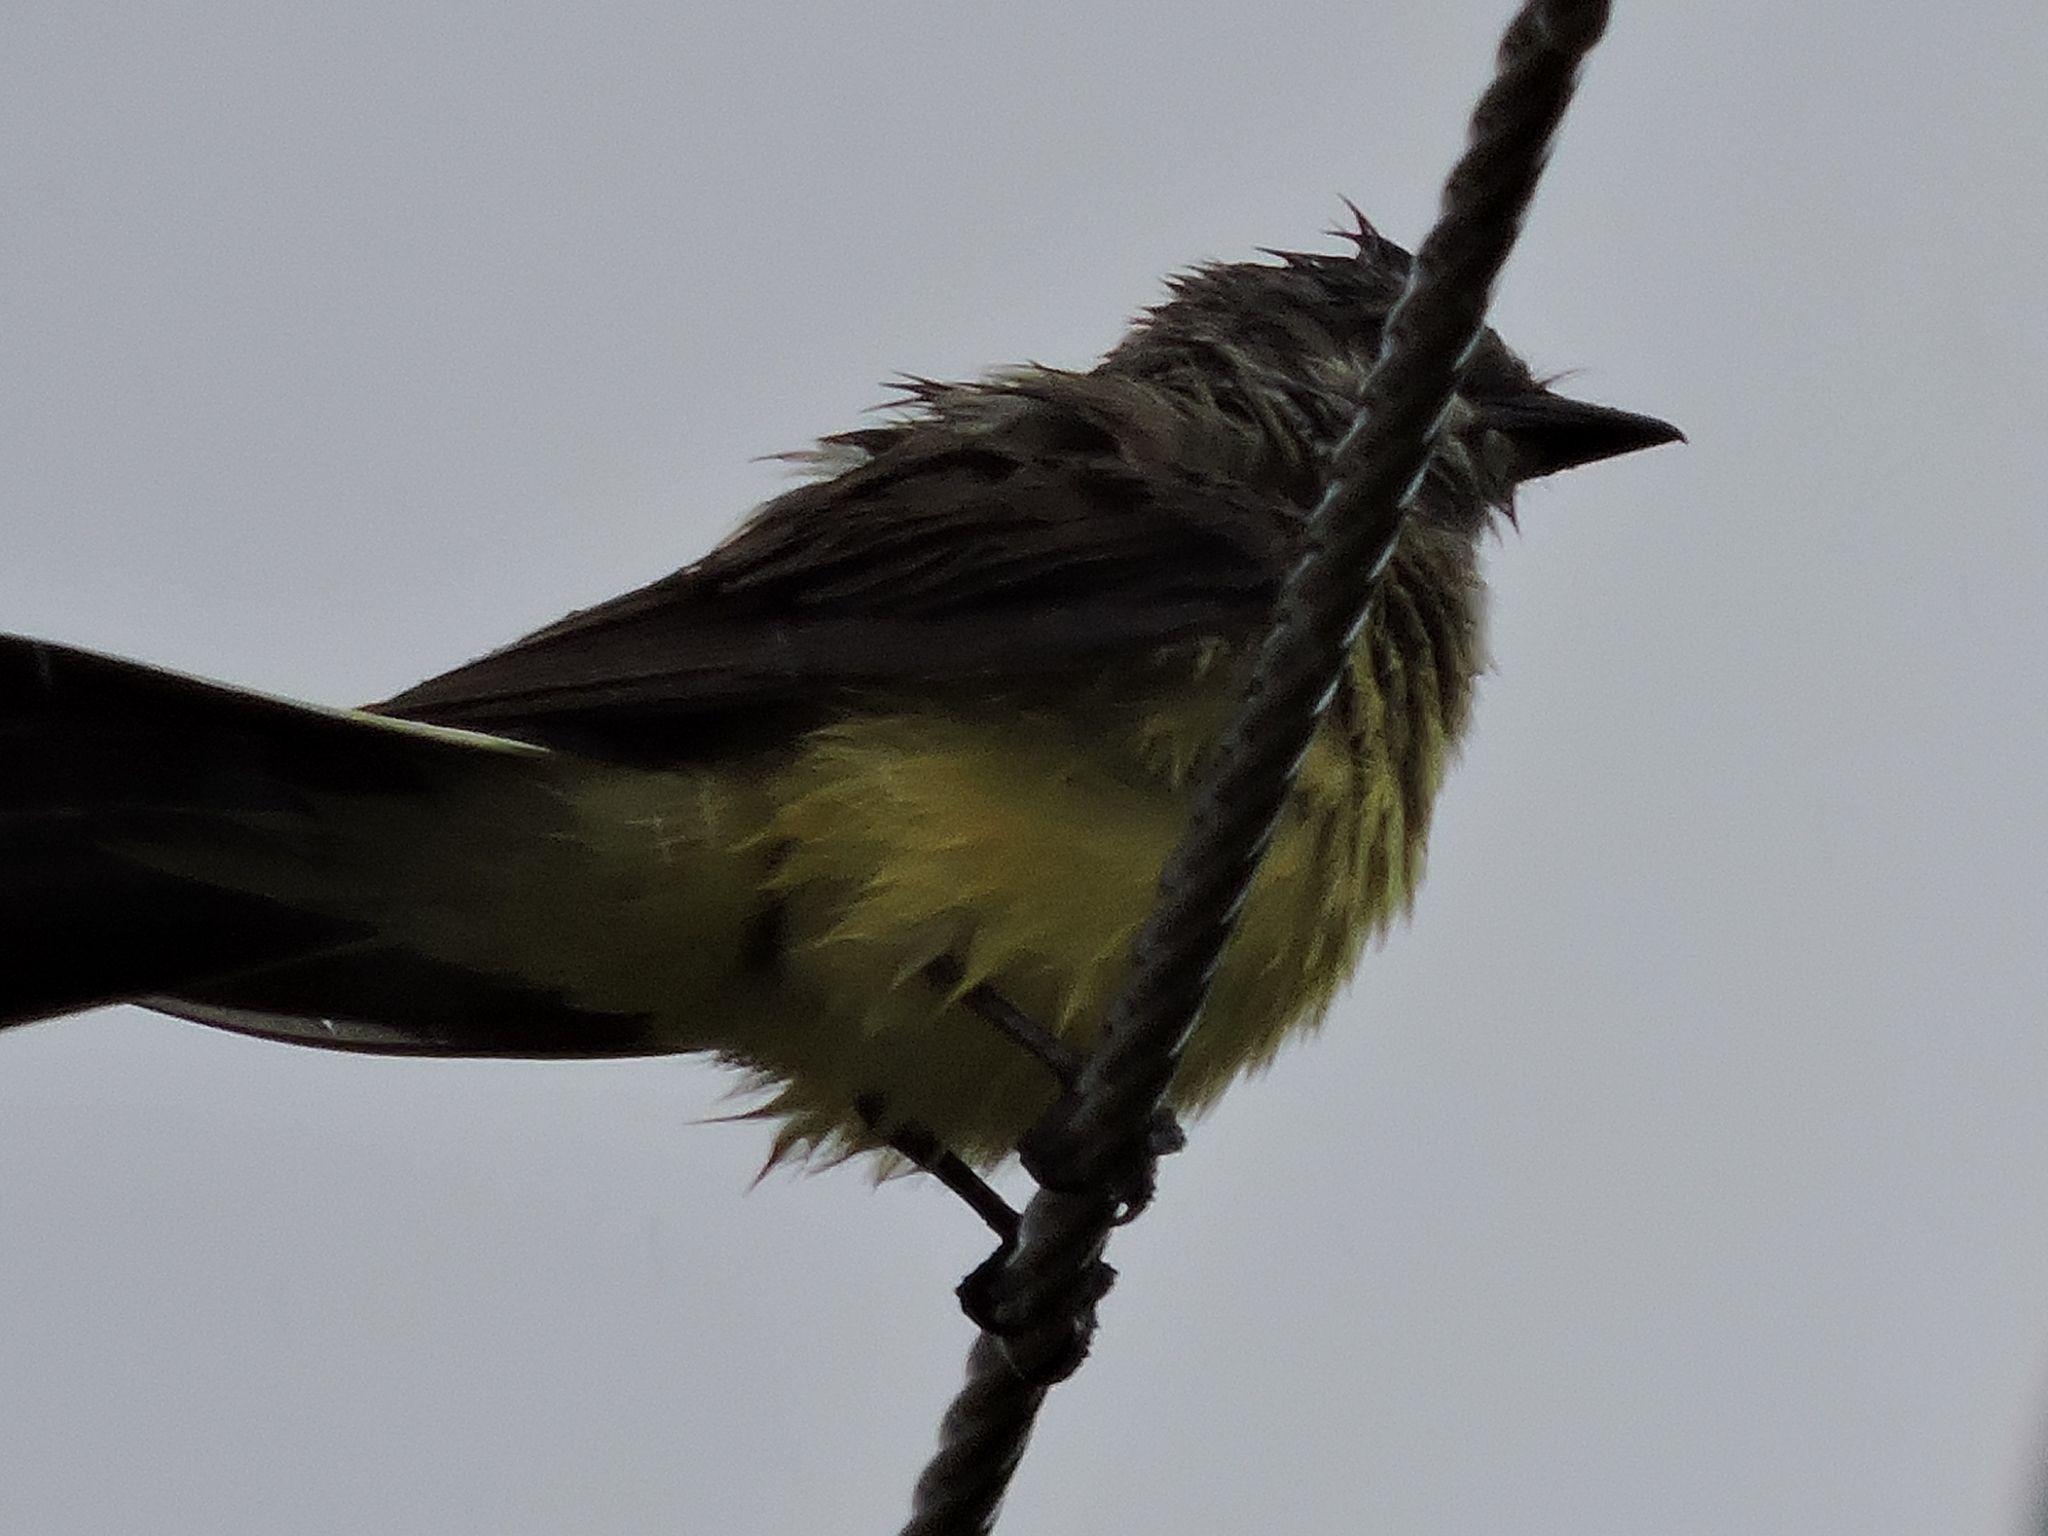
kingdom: Animalia
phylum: Chordata
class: Aves
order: Passeriformes
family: Tyrannidae
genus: Tyrannus
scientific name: Tyrannus verticalis
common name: Western kingbird
